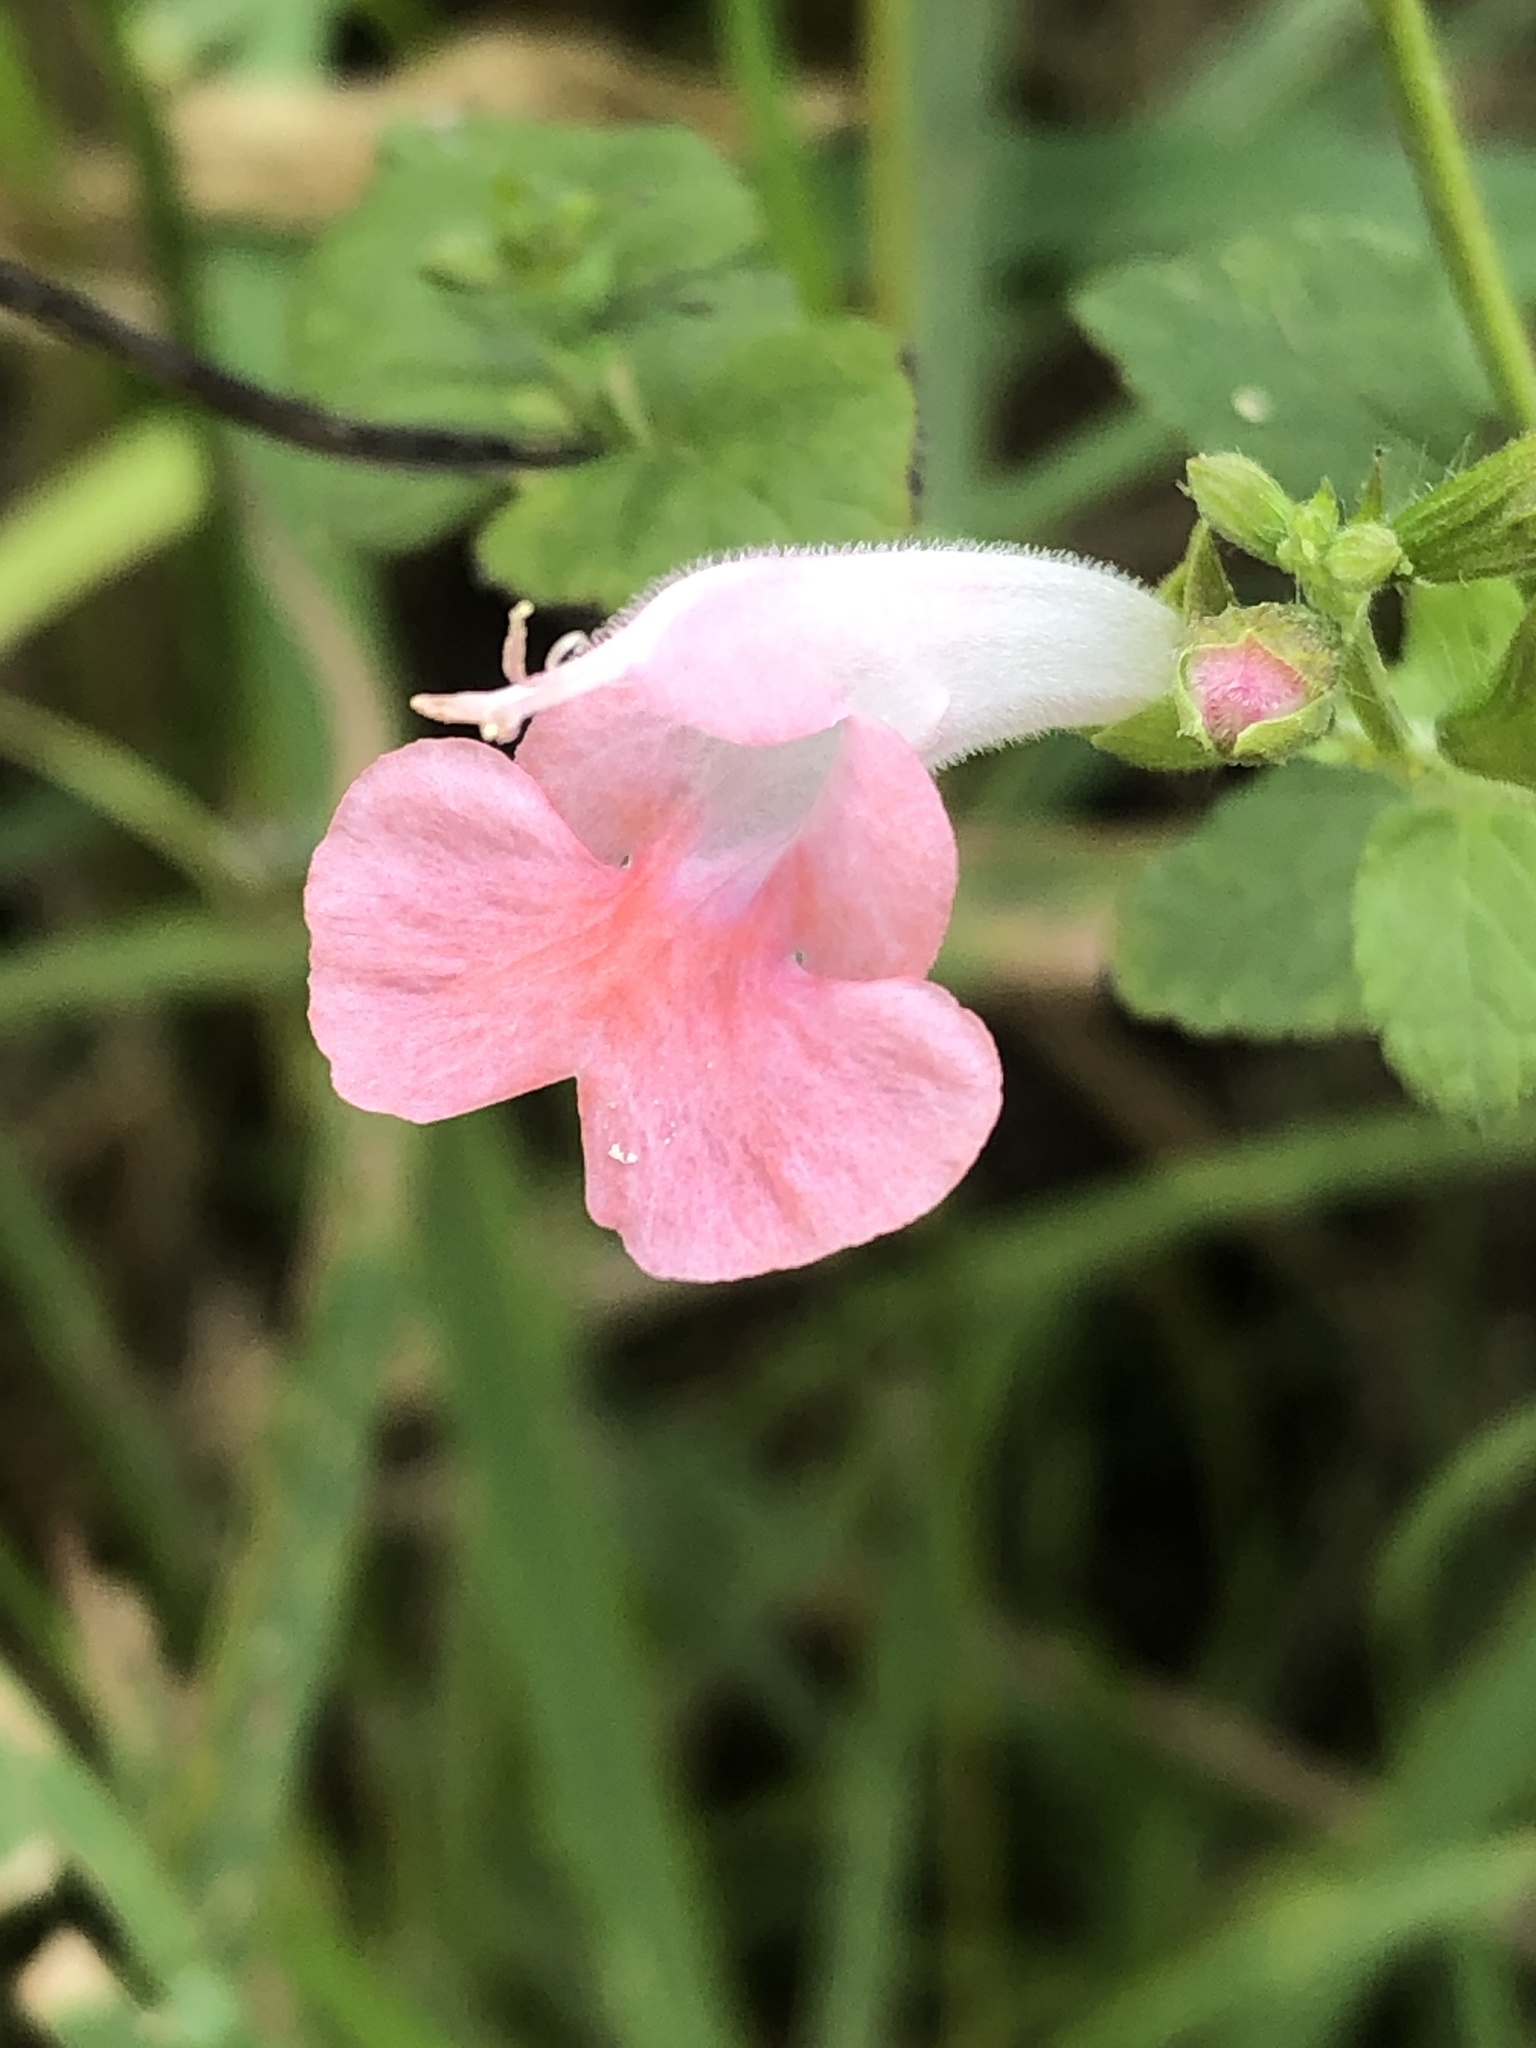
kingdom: Plantae
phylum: Tracheophyta
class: Magnoliopsida
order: Lamiales
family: Lamiaceae
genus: Salvia
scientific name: Salvia coccinea
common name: Blood sage
